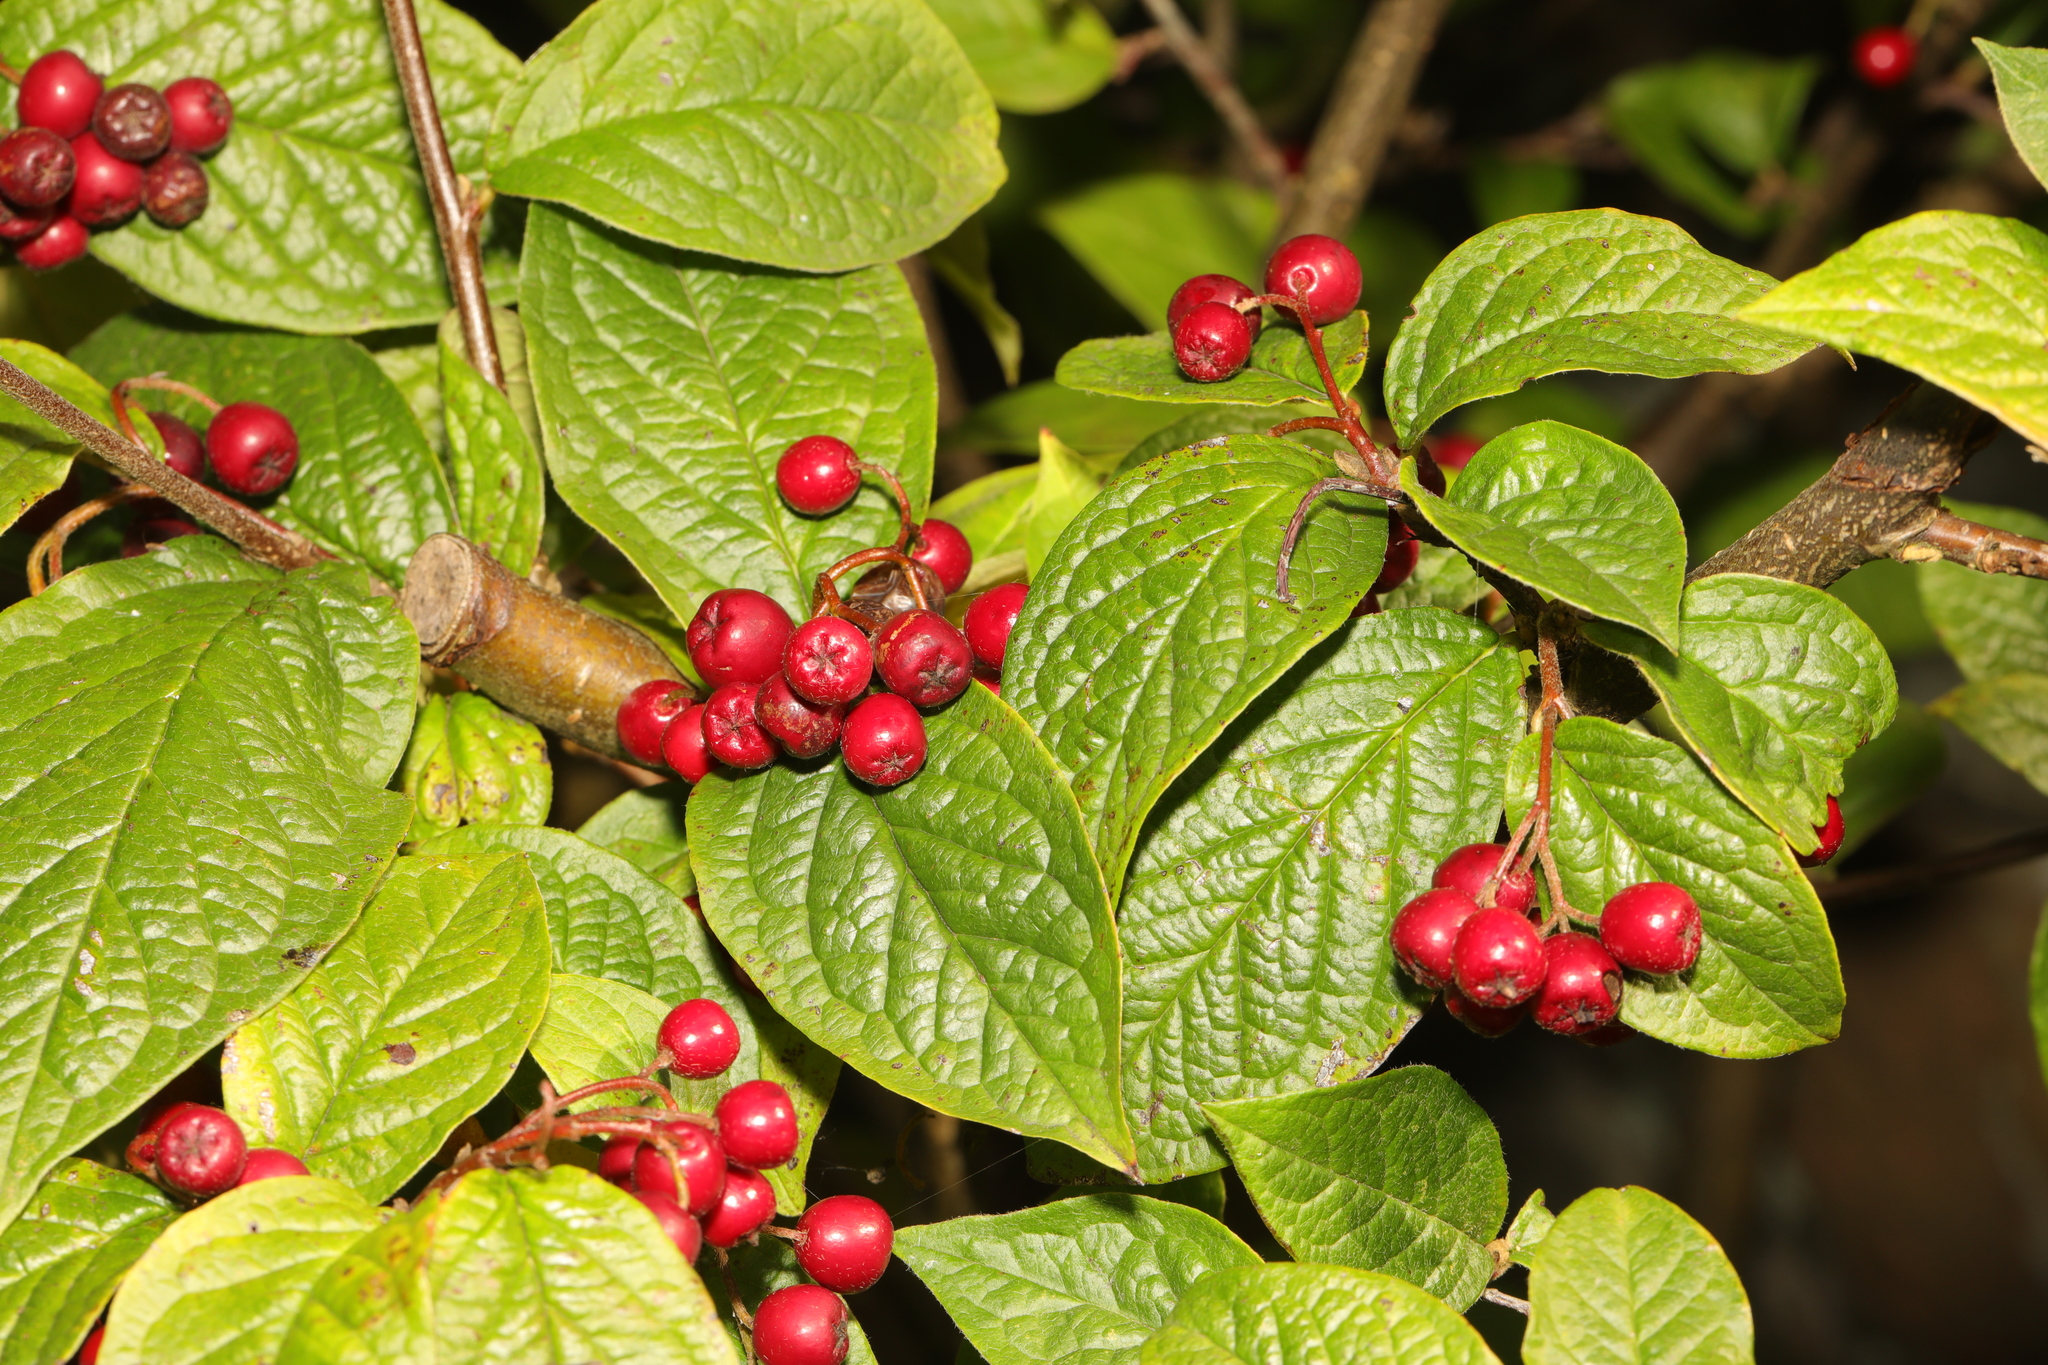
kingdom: Plantae
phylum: Tracheophyta
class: Magnoliopsida
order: Rosales
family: Rosaceae
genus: Cotoneaster
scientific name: Cotoneaster bullatus
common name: Hollyberry cotoneaster
